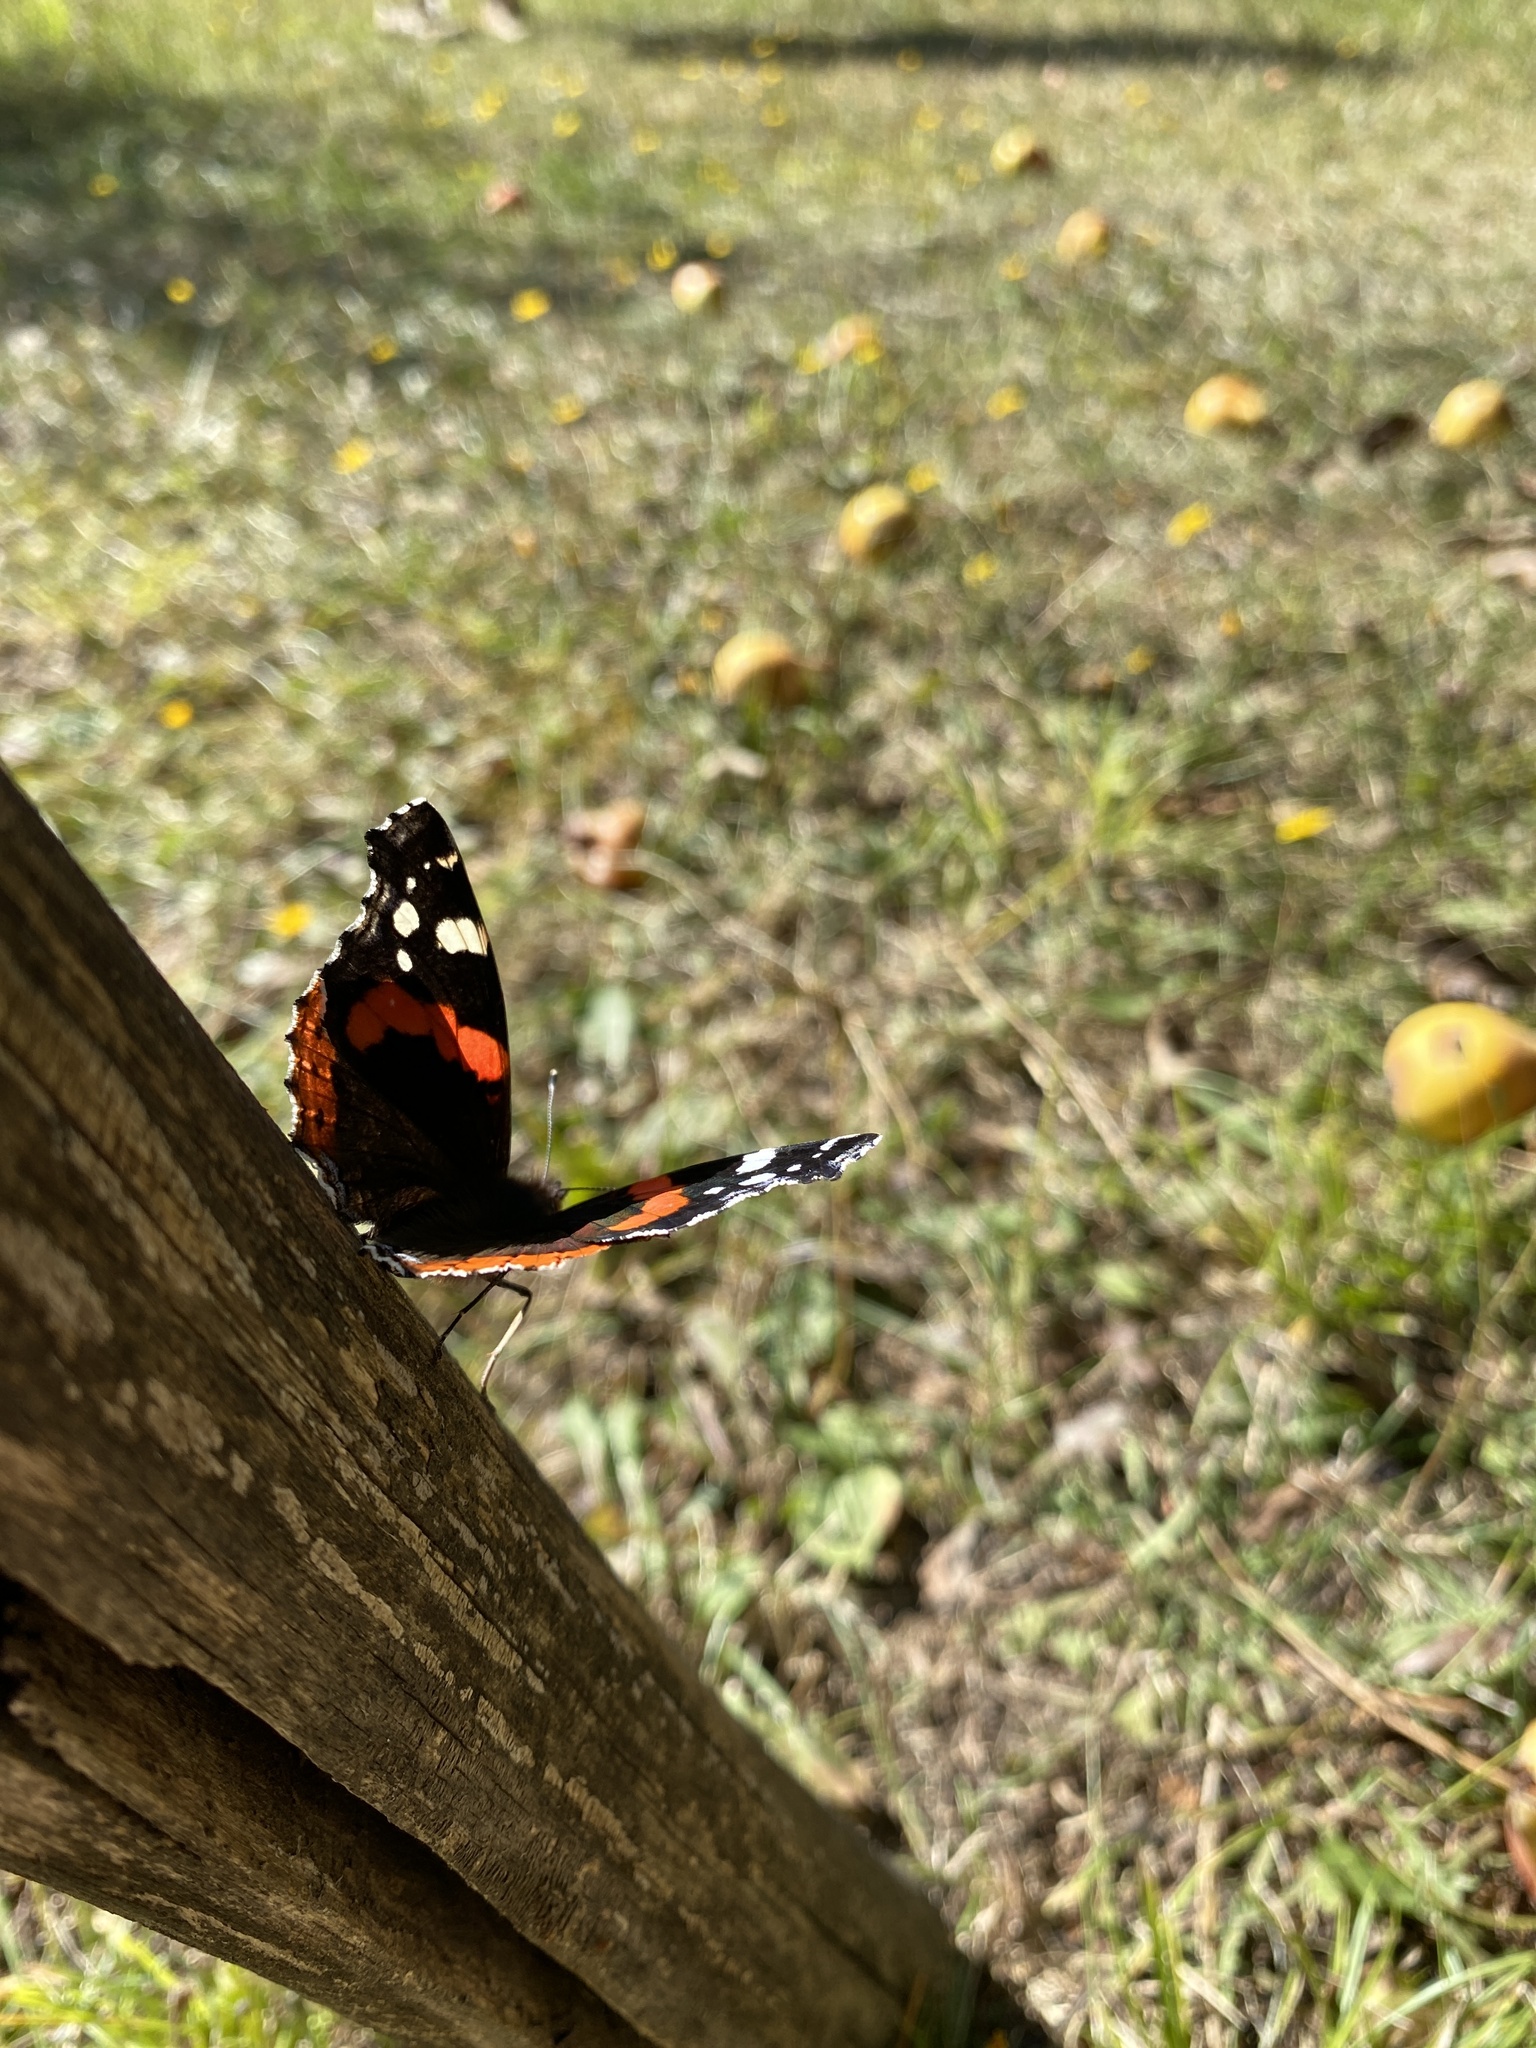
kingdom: Animalia
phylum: Arthropoda
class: Insecta
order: Lepidoptera
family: Nymphalidae
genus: Vanessa
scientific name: Vanessa atalanta
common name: Red admiral
